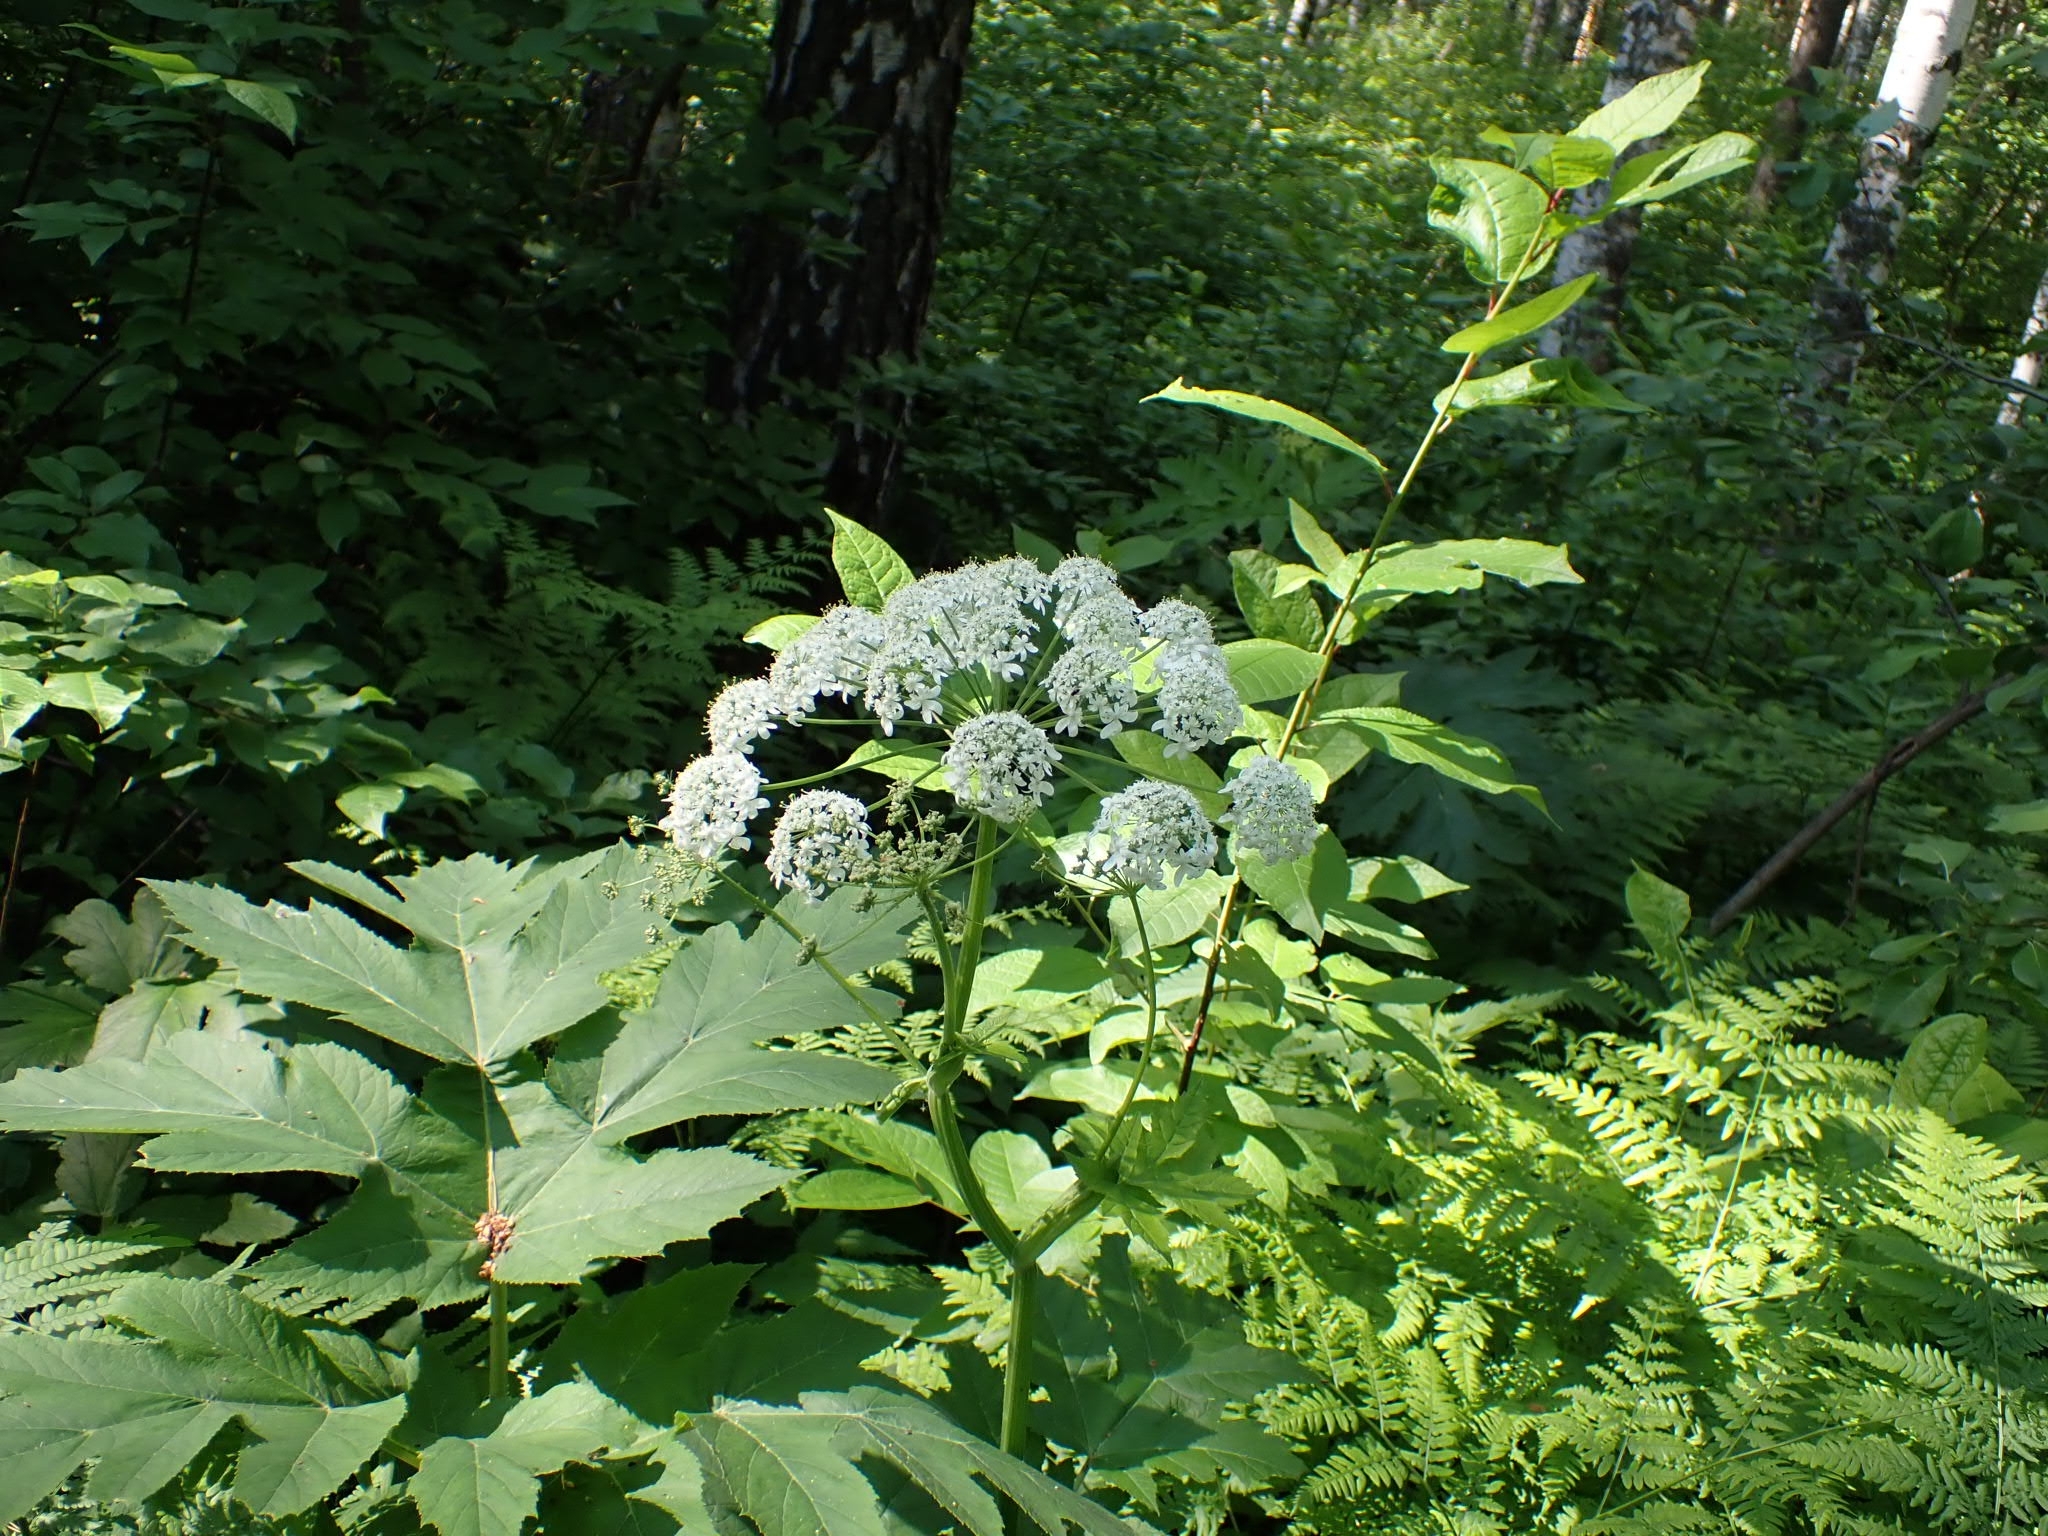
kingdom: Plantae
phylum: Tracheophyta
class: Magnoliopsida
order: Apiales
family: Apiaceae
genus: Heracleum
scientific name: Heracleum dissectum
